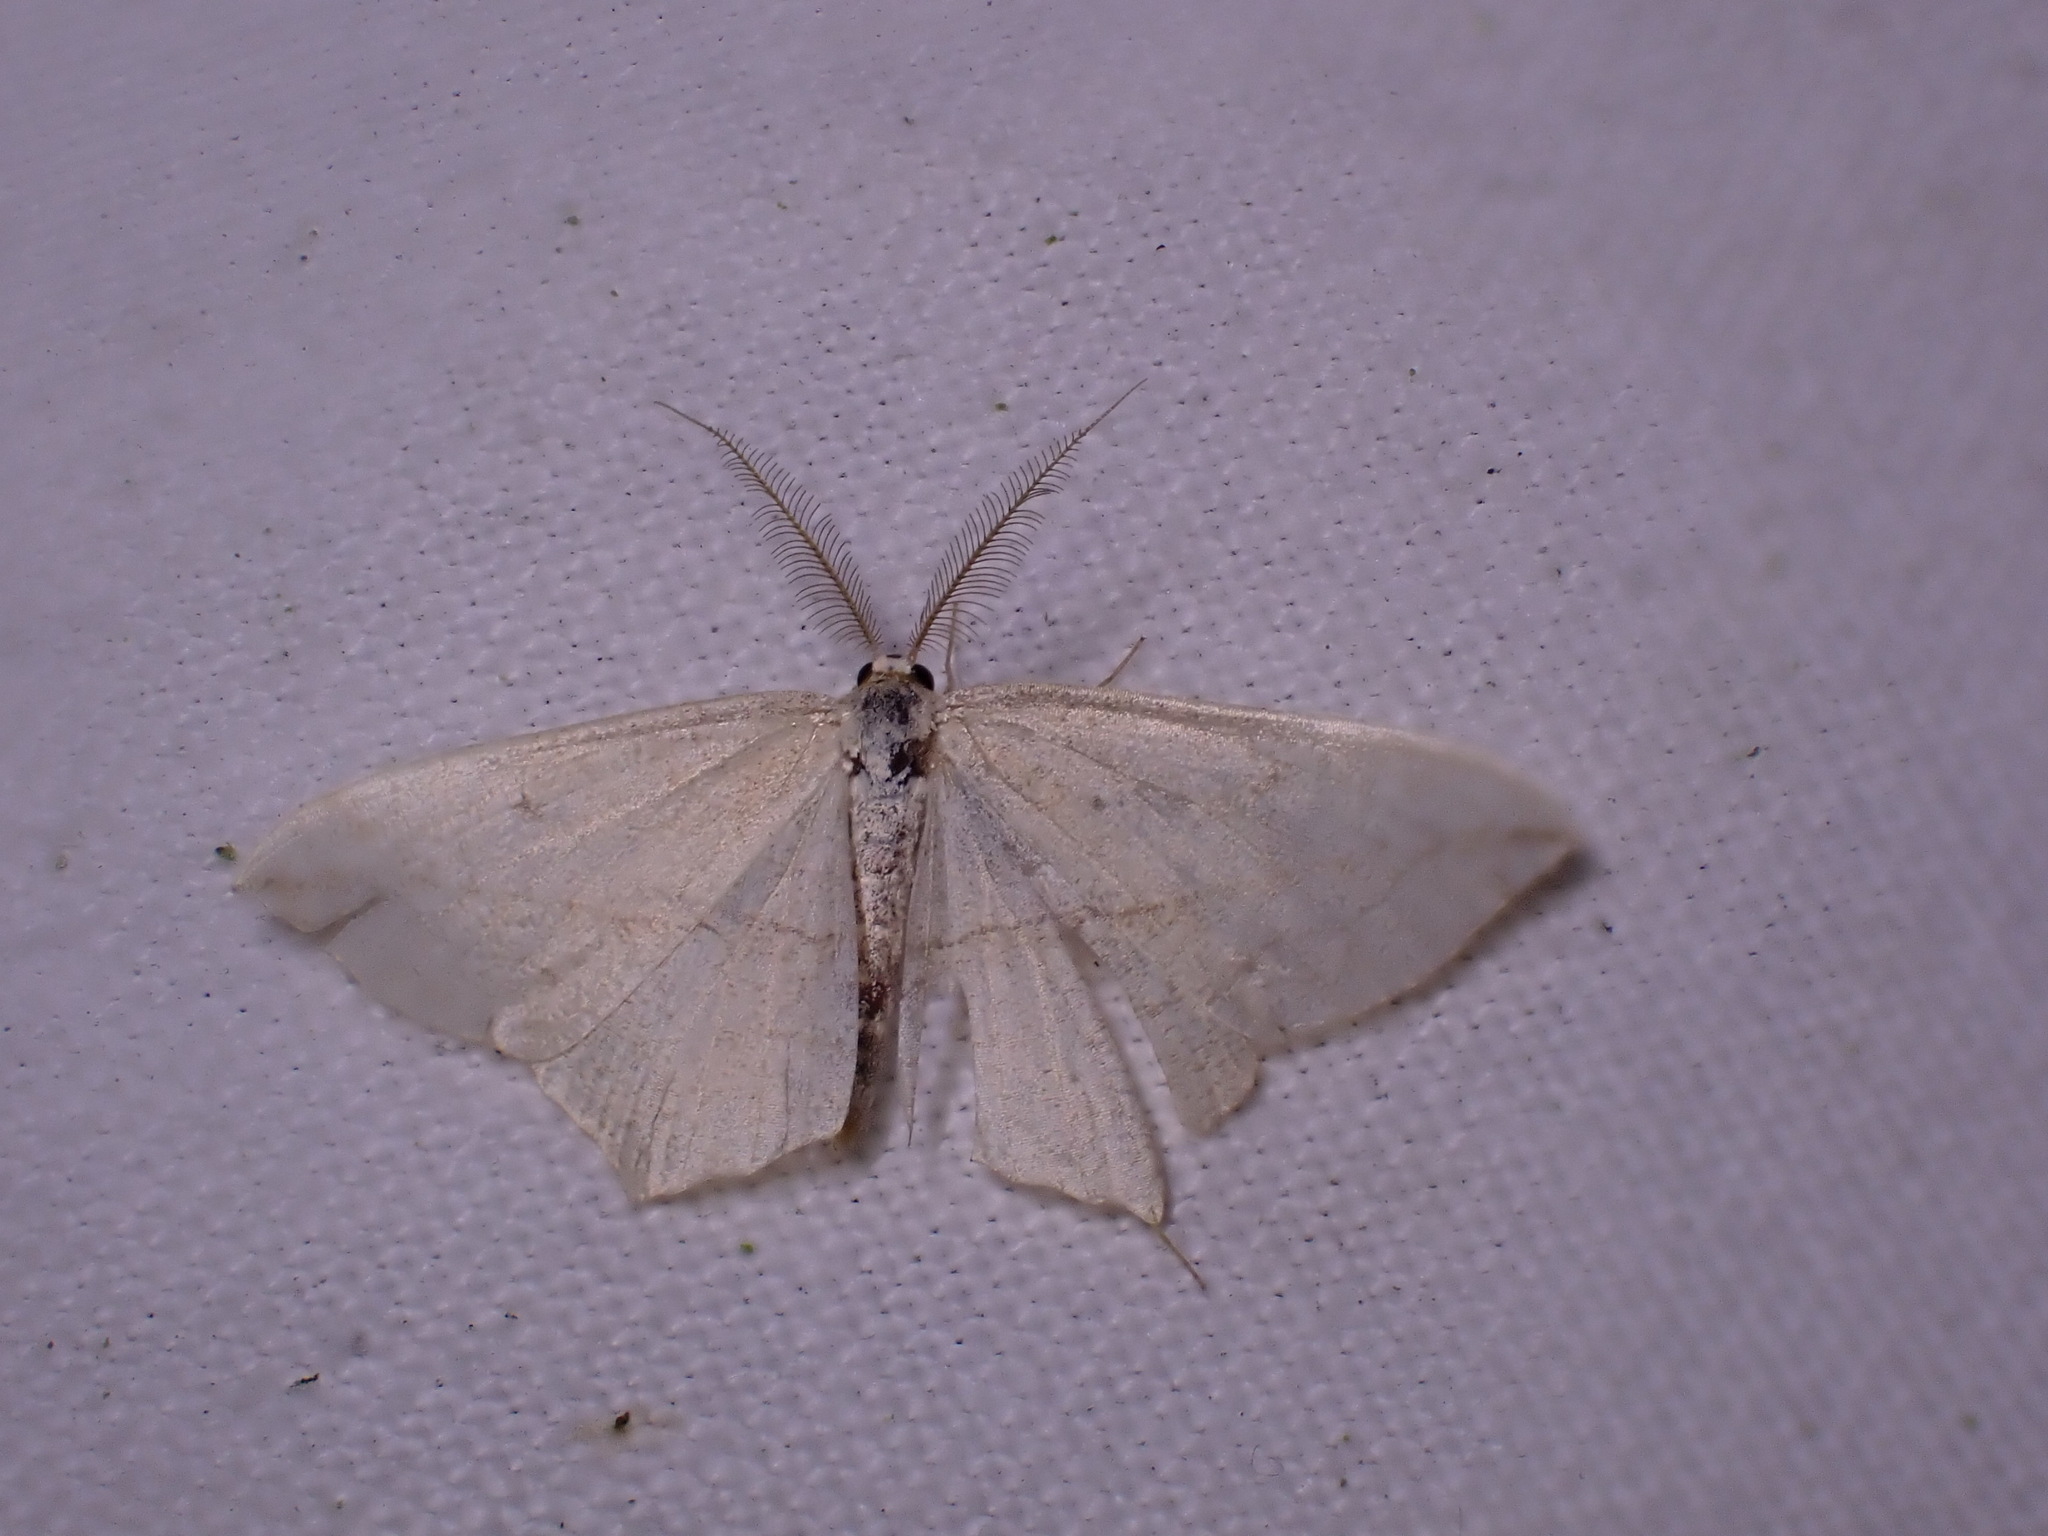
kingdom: Animalia
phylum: Arthropoda
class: Insecta
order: Lepidoptera
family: Geometridae
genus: Timandra
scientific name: Timandra comae
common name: Blood-vein
